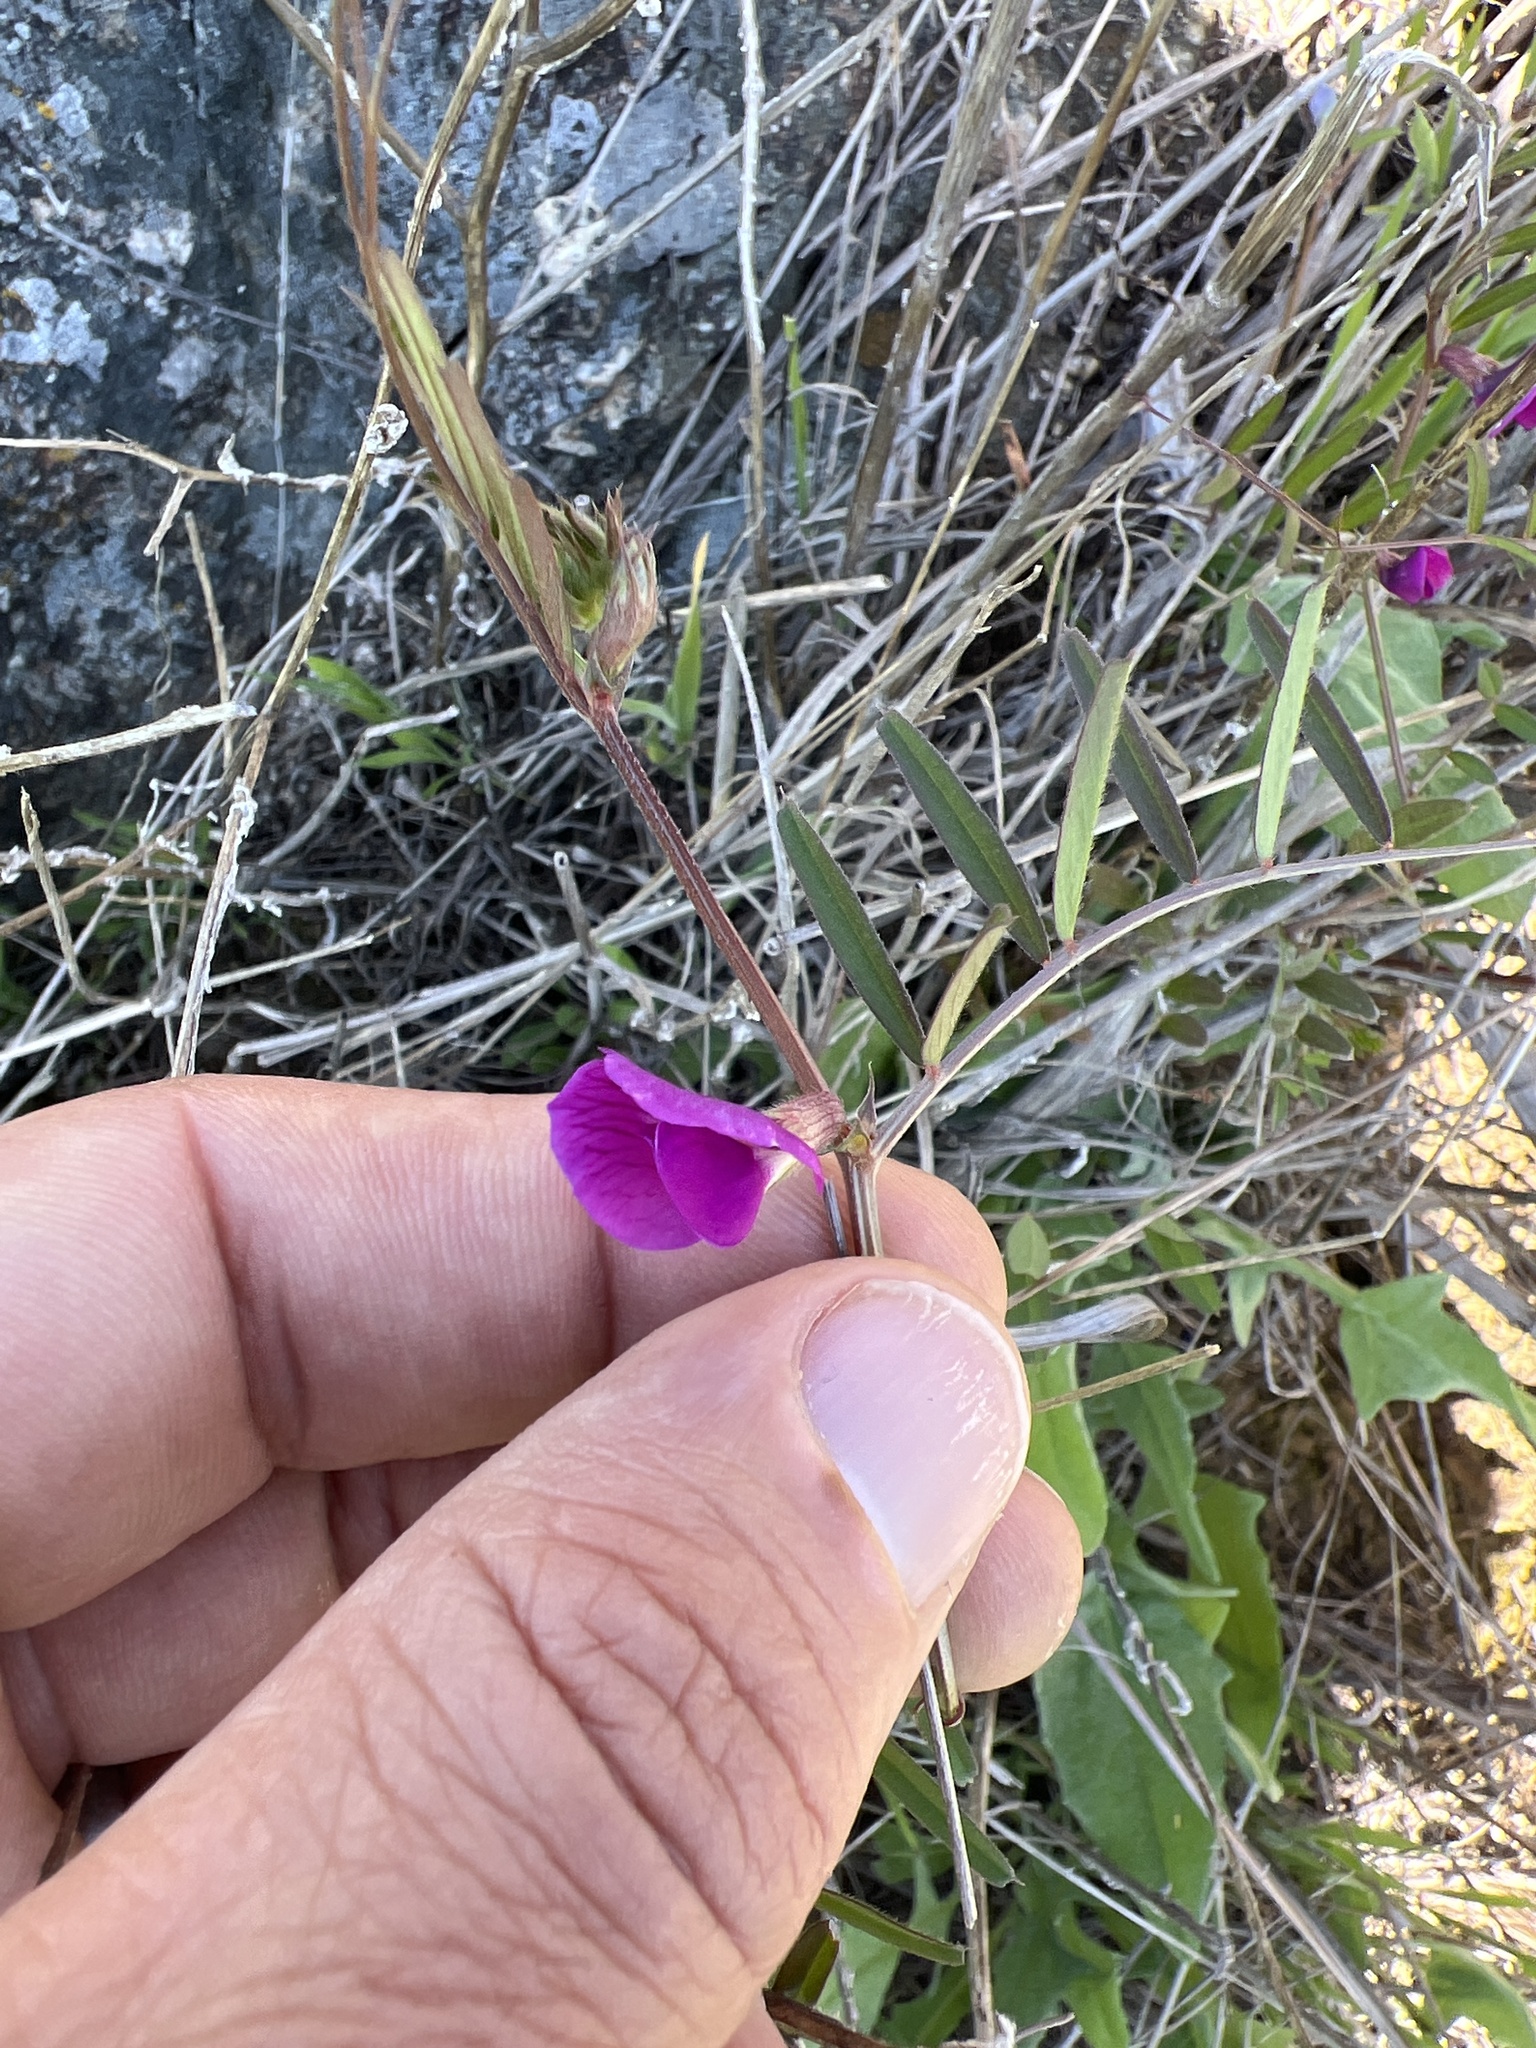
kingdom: Plantae
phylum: Tracheophyta
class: Magnoliopsida
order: Fabales
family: Fabaceae
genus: Vicia
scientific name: Vicia sativa
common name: Garden vetch
